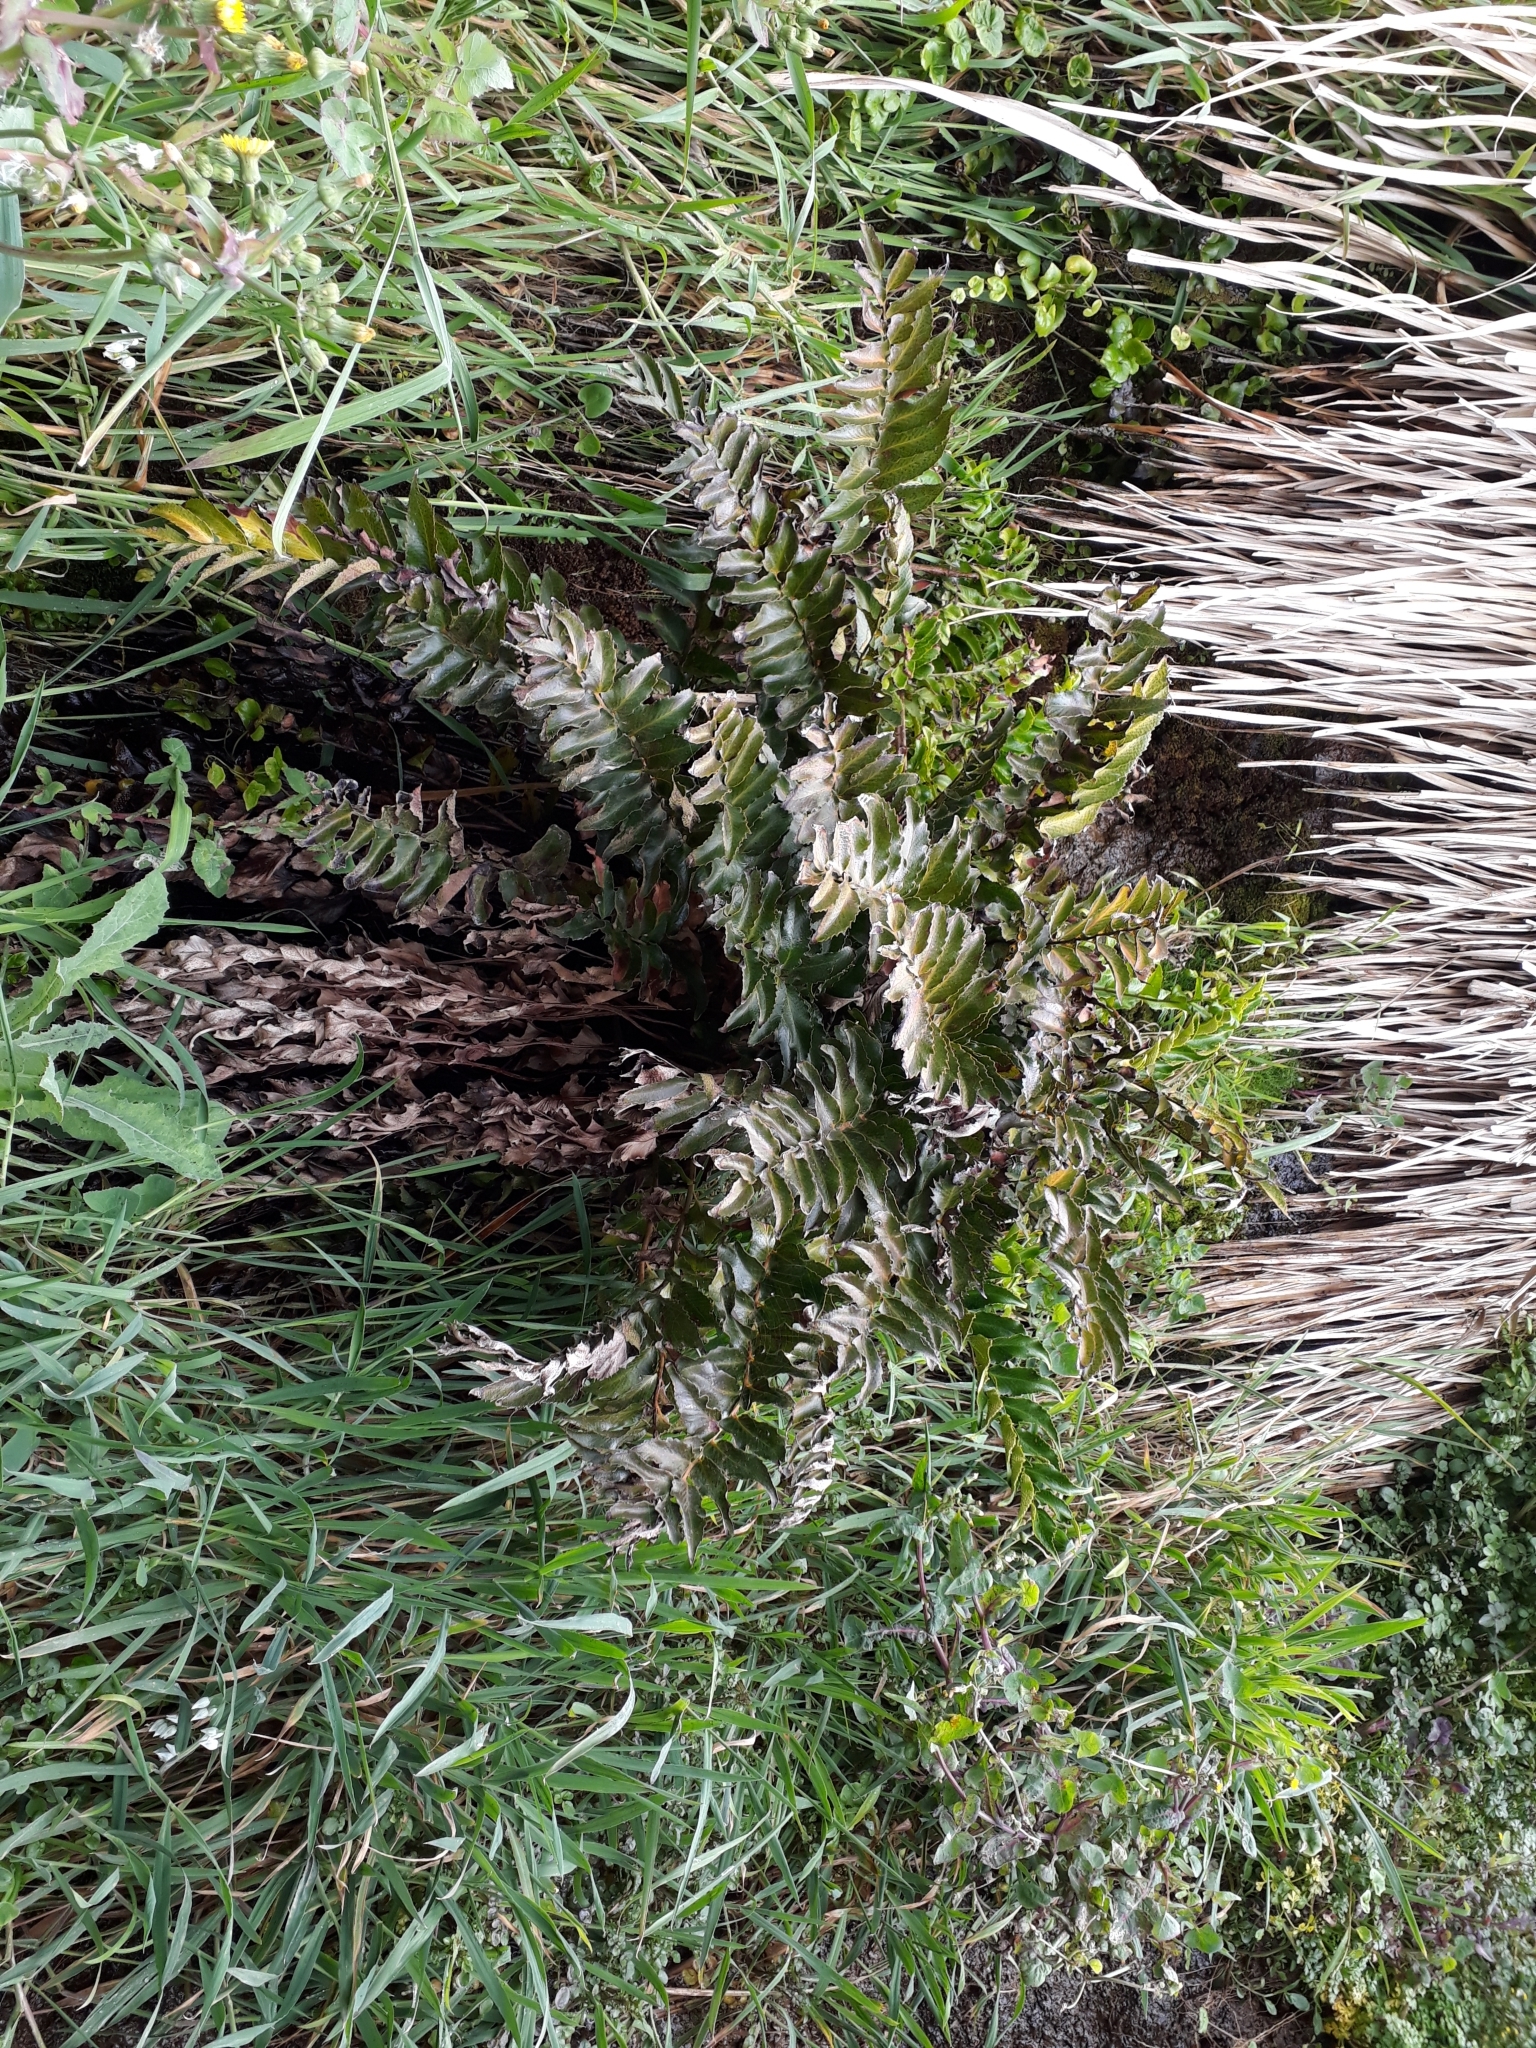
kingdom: Plantae
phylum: Tracheophyta
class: Polypodiopsida
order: Polypodiales
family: Dryopteridaceae
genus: Cyrtomium
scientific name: Cyrtomium falcatum
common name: House holly-fern
